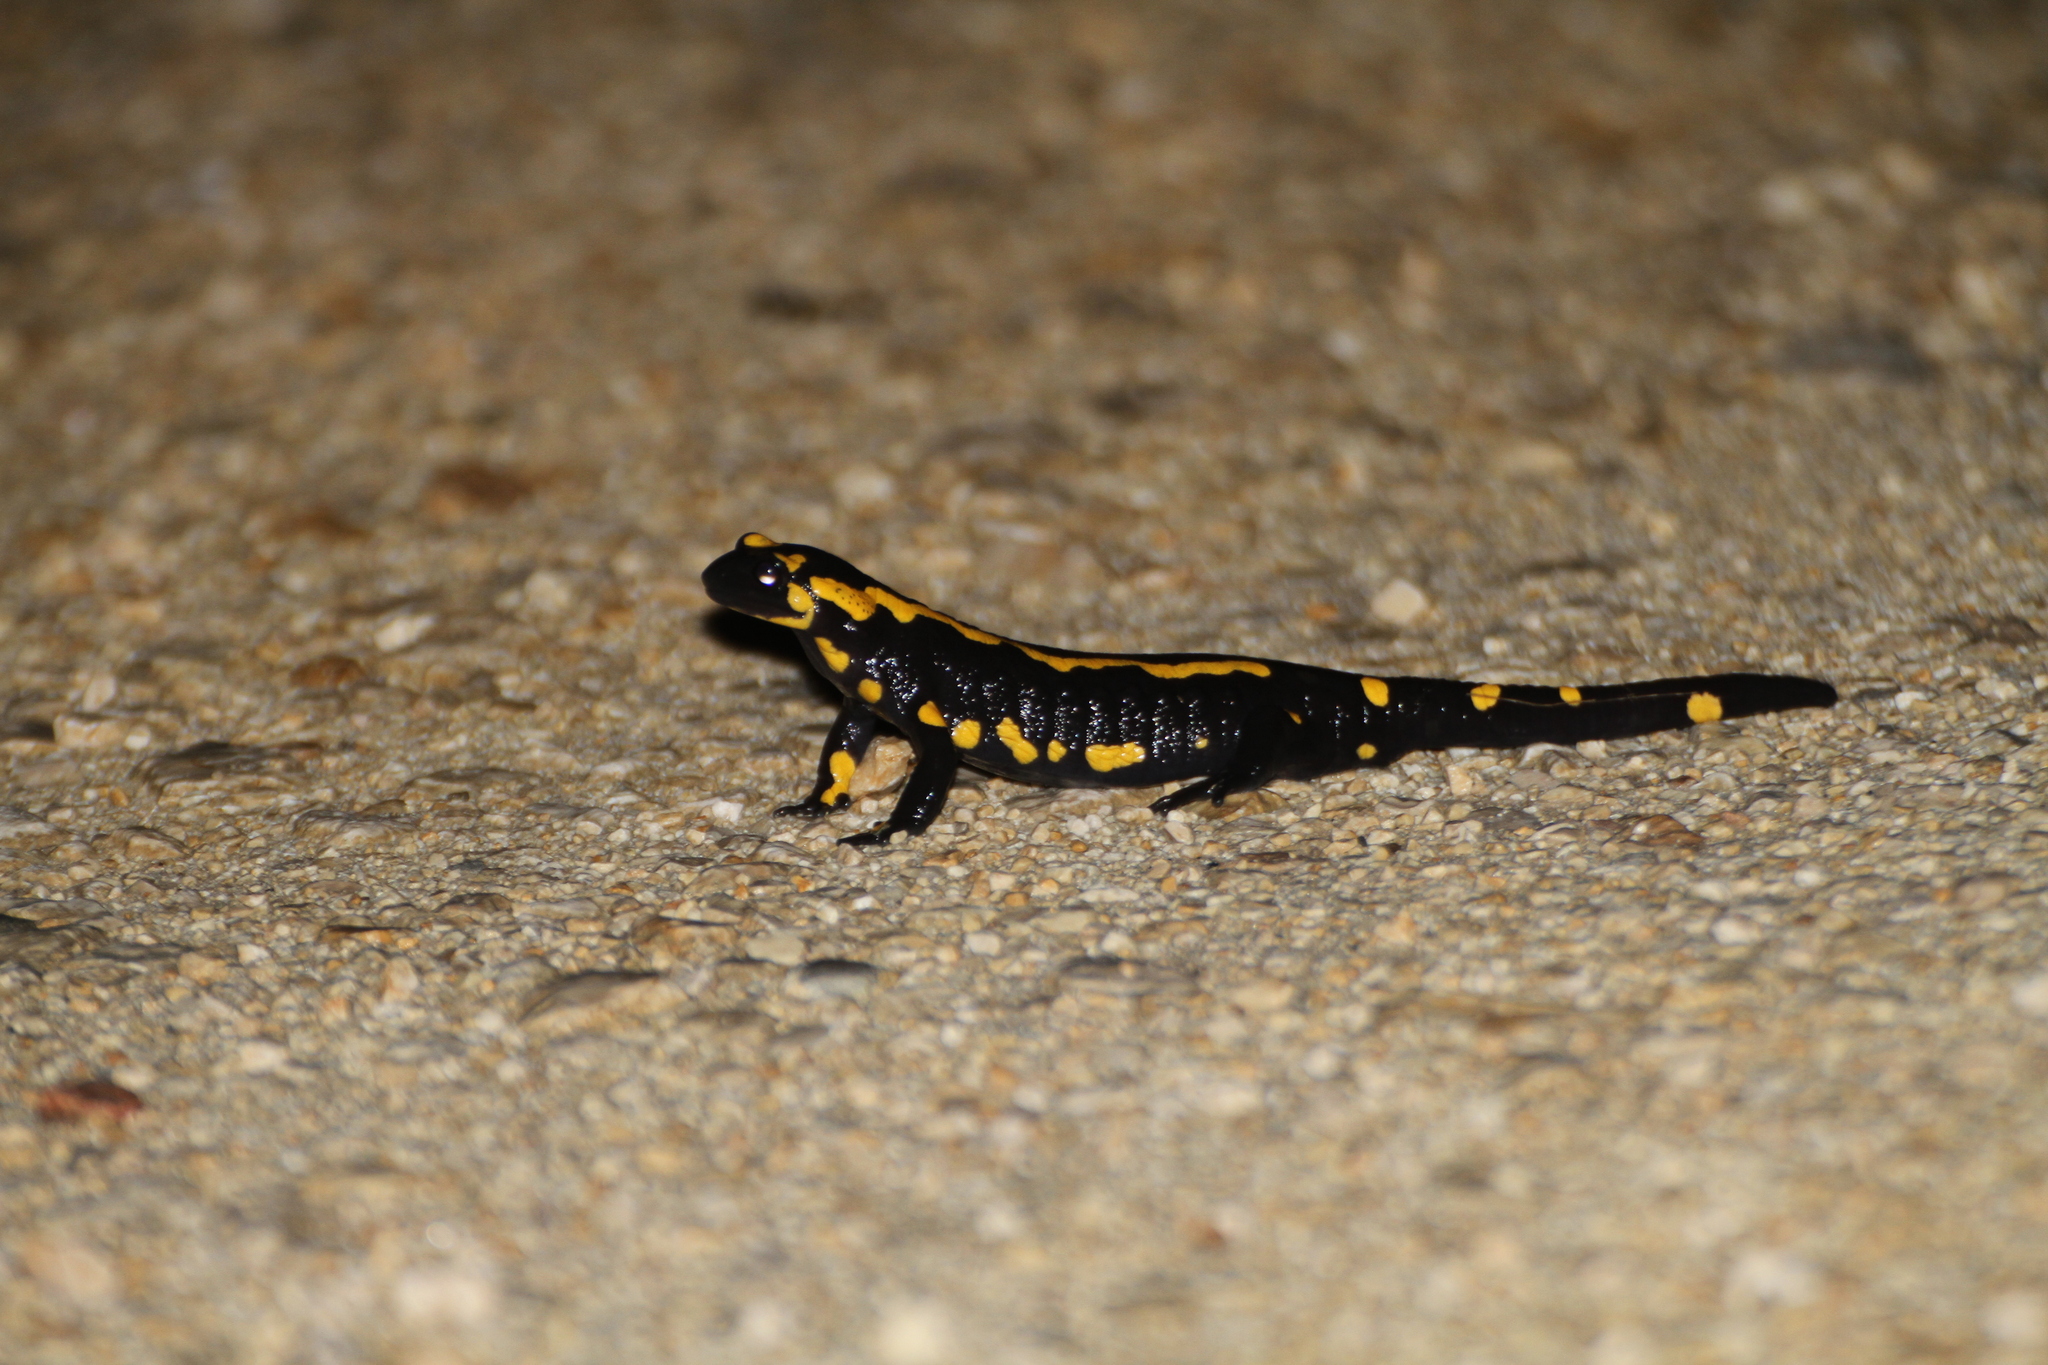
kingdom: Animalia
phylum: Chordata
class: Amphibia
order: Caudata
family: Salamandridae
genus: Salamandra
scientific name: Salamandra salamandra
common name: Fire salamander
